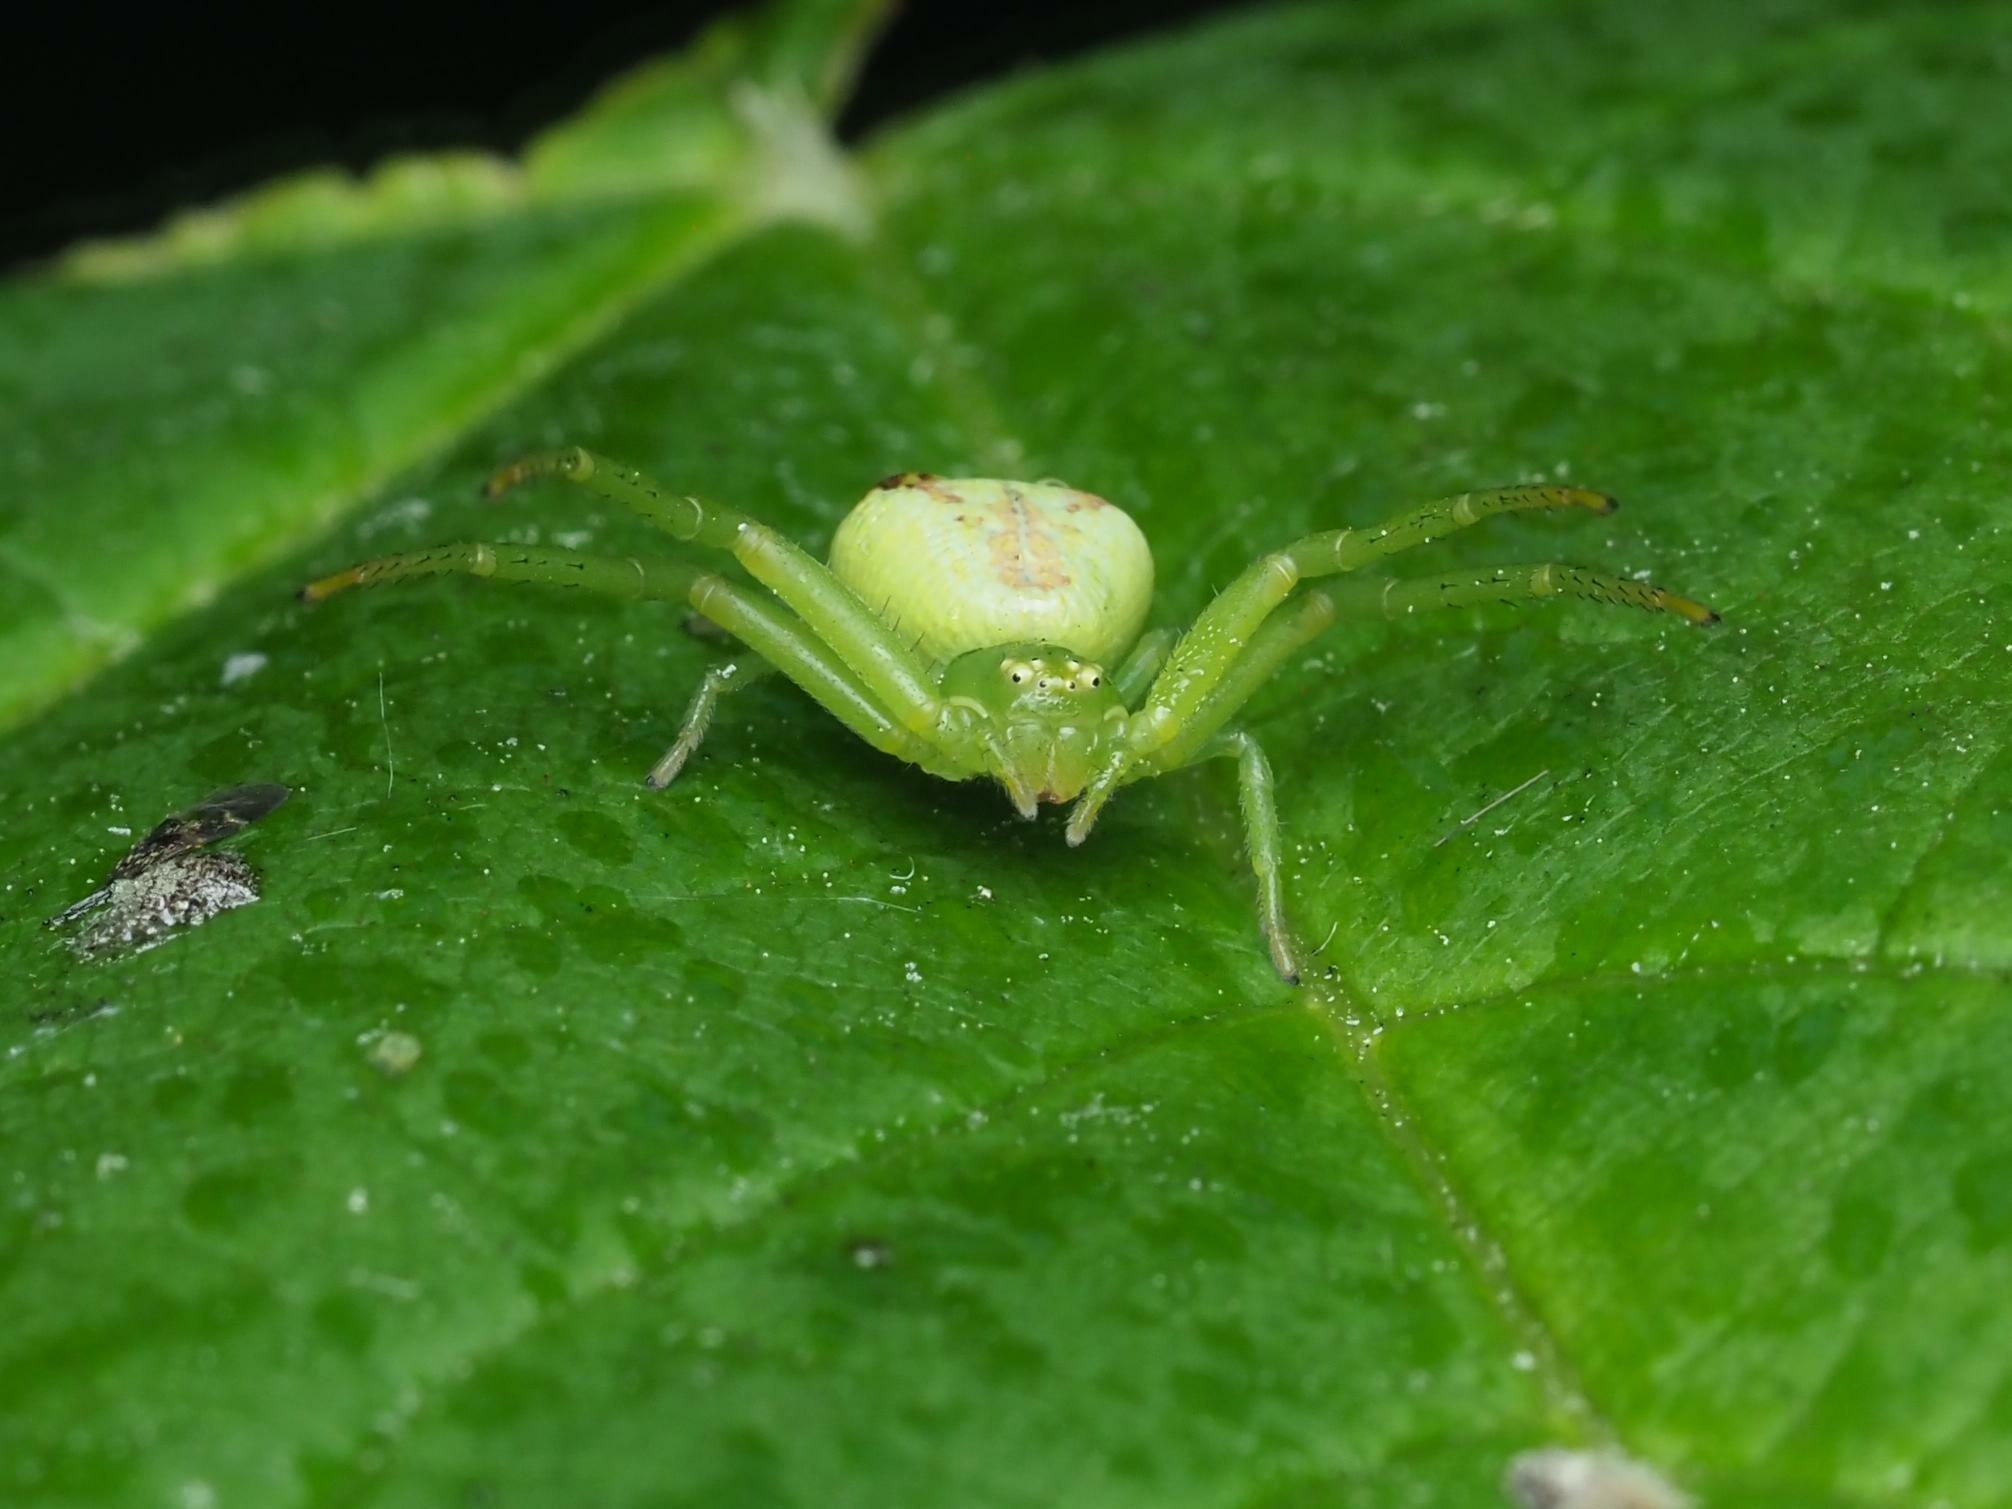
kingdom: Animalia
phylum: Arthropoda
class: Arachnida
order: Araneae
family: Thomisidae
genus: Ebrechtella
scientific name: Ebrechtella tricuspidata
